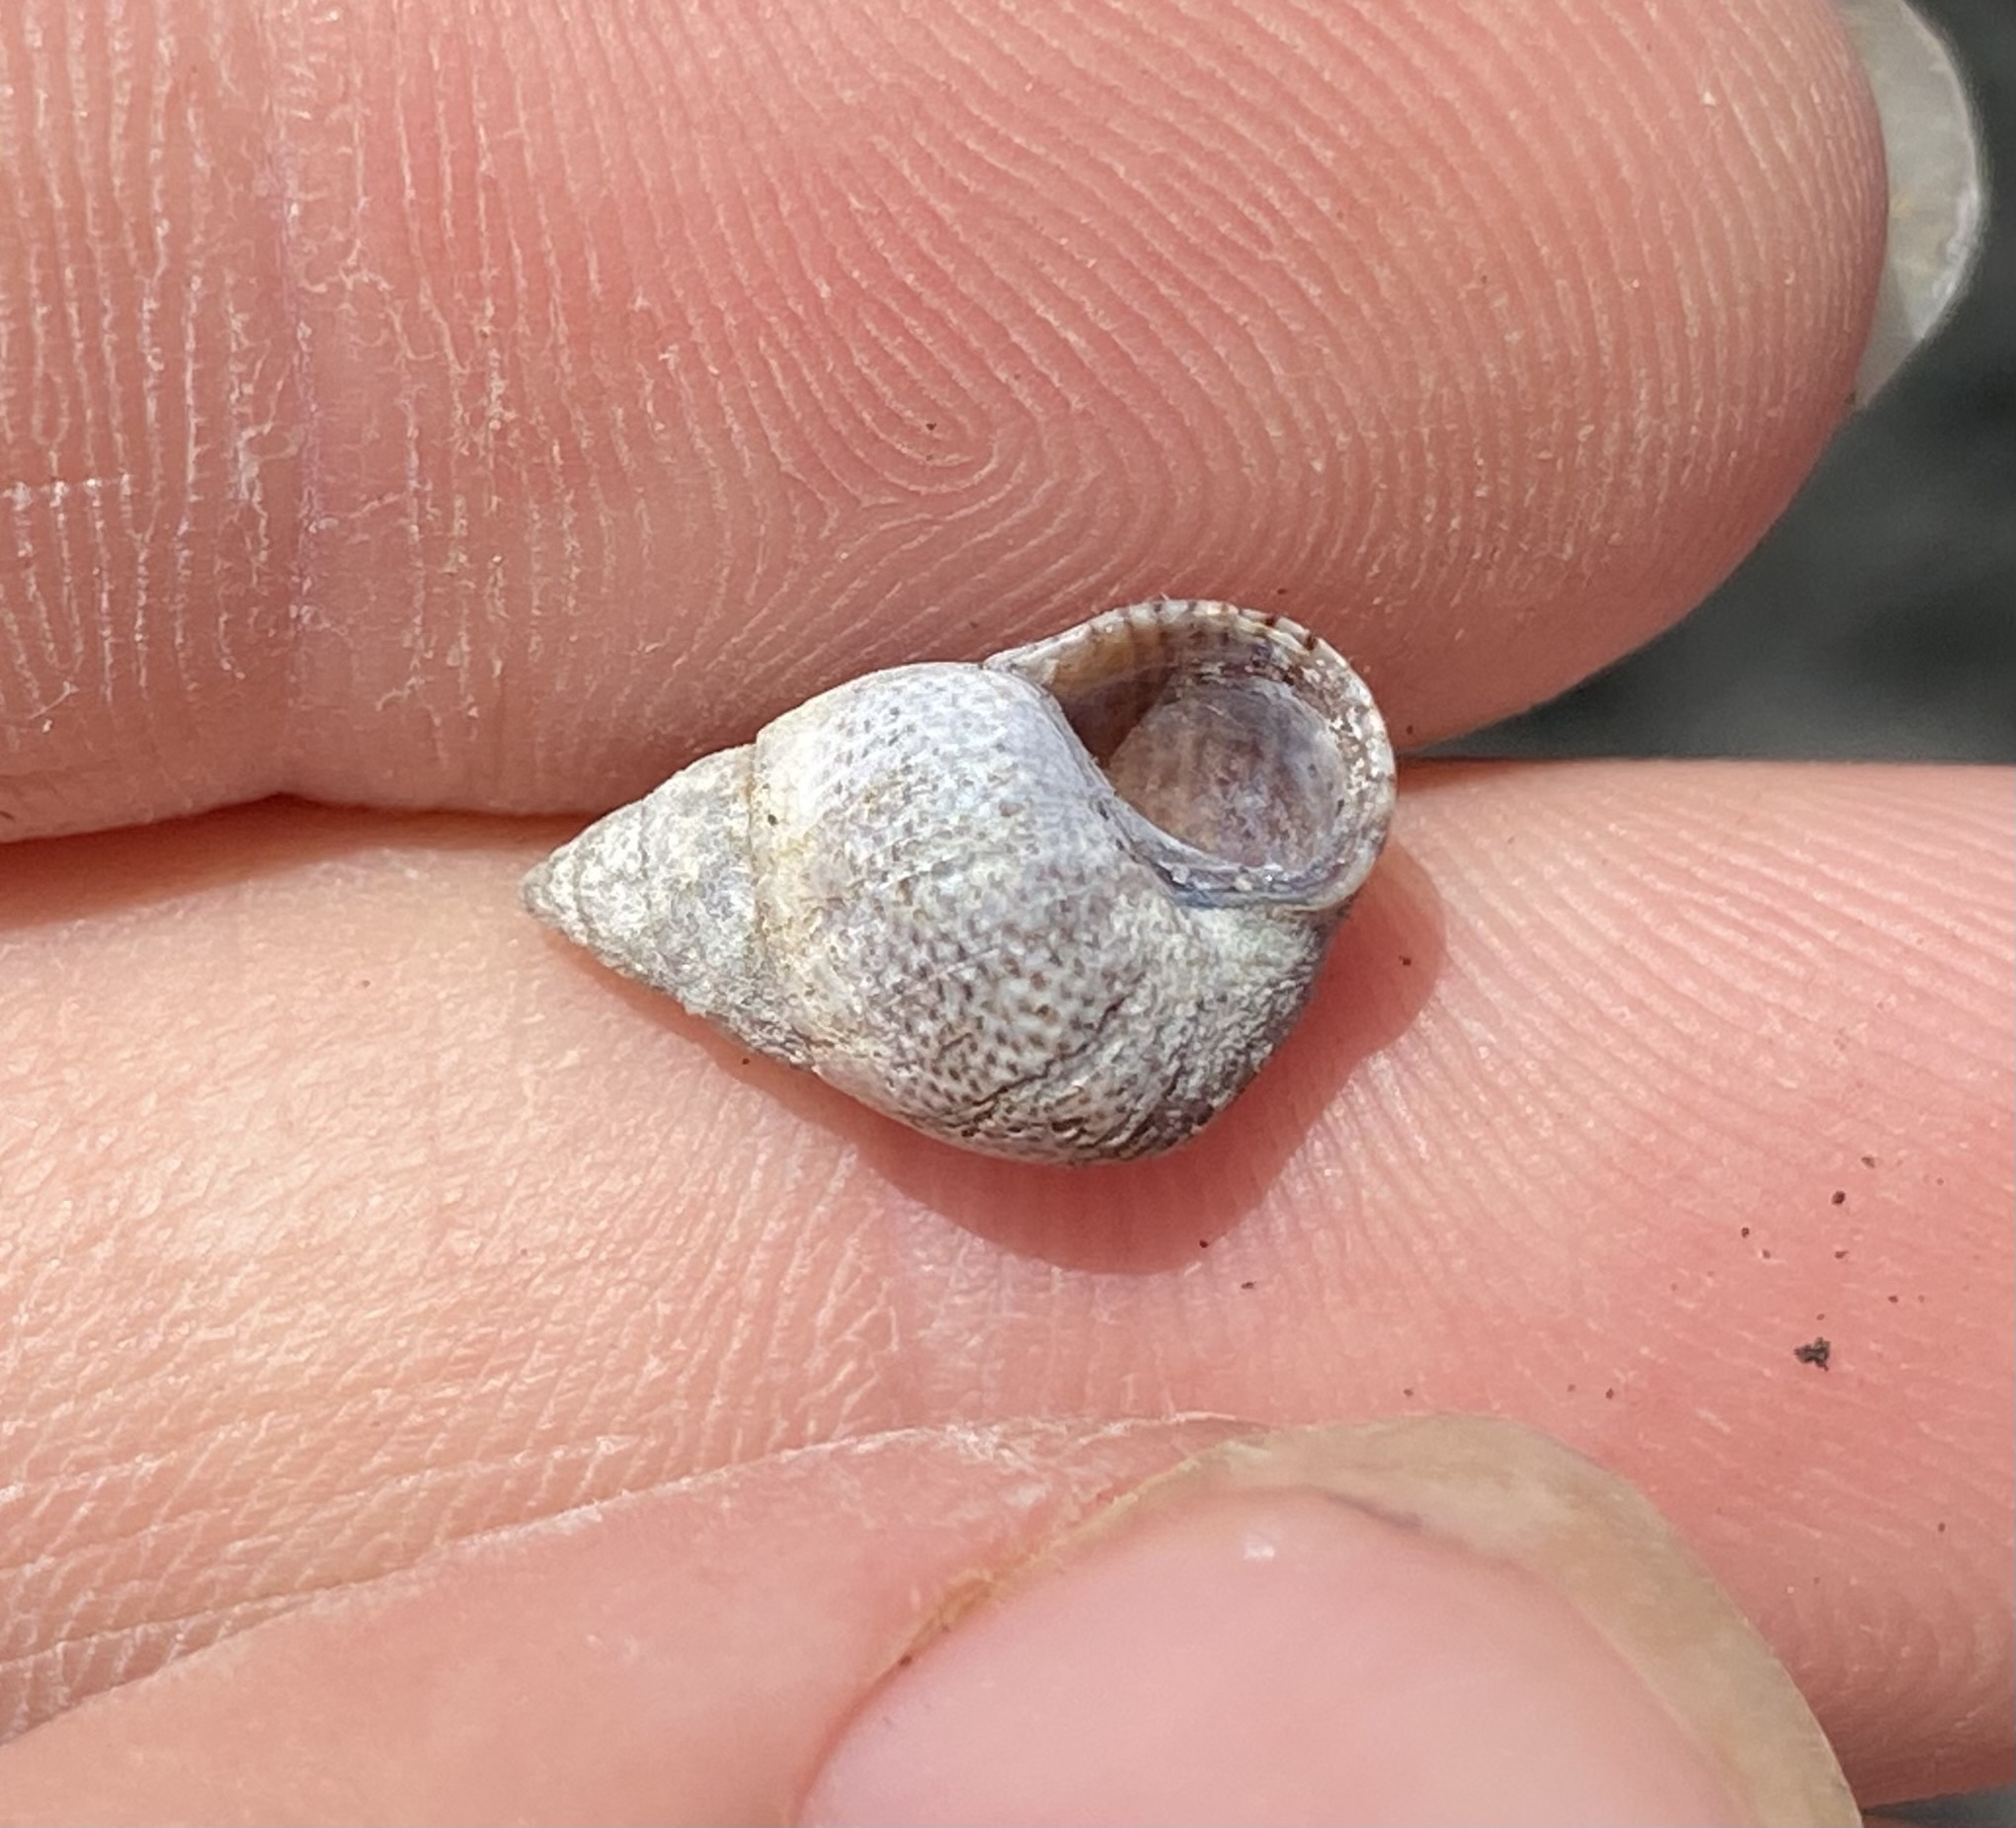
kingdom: Animalia
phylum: Mollusca
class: Gastropoda
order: Littorinimorpha
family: Littorinidae
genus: Littoraria
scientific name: Littoraria pintado
